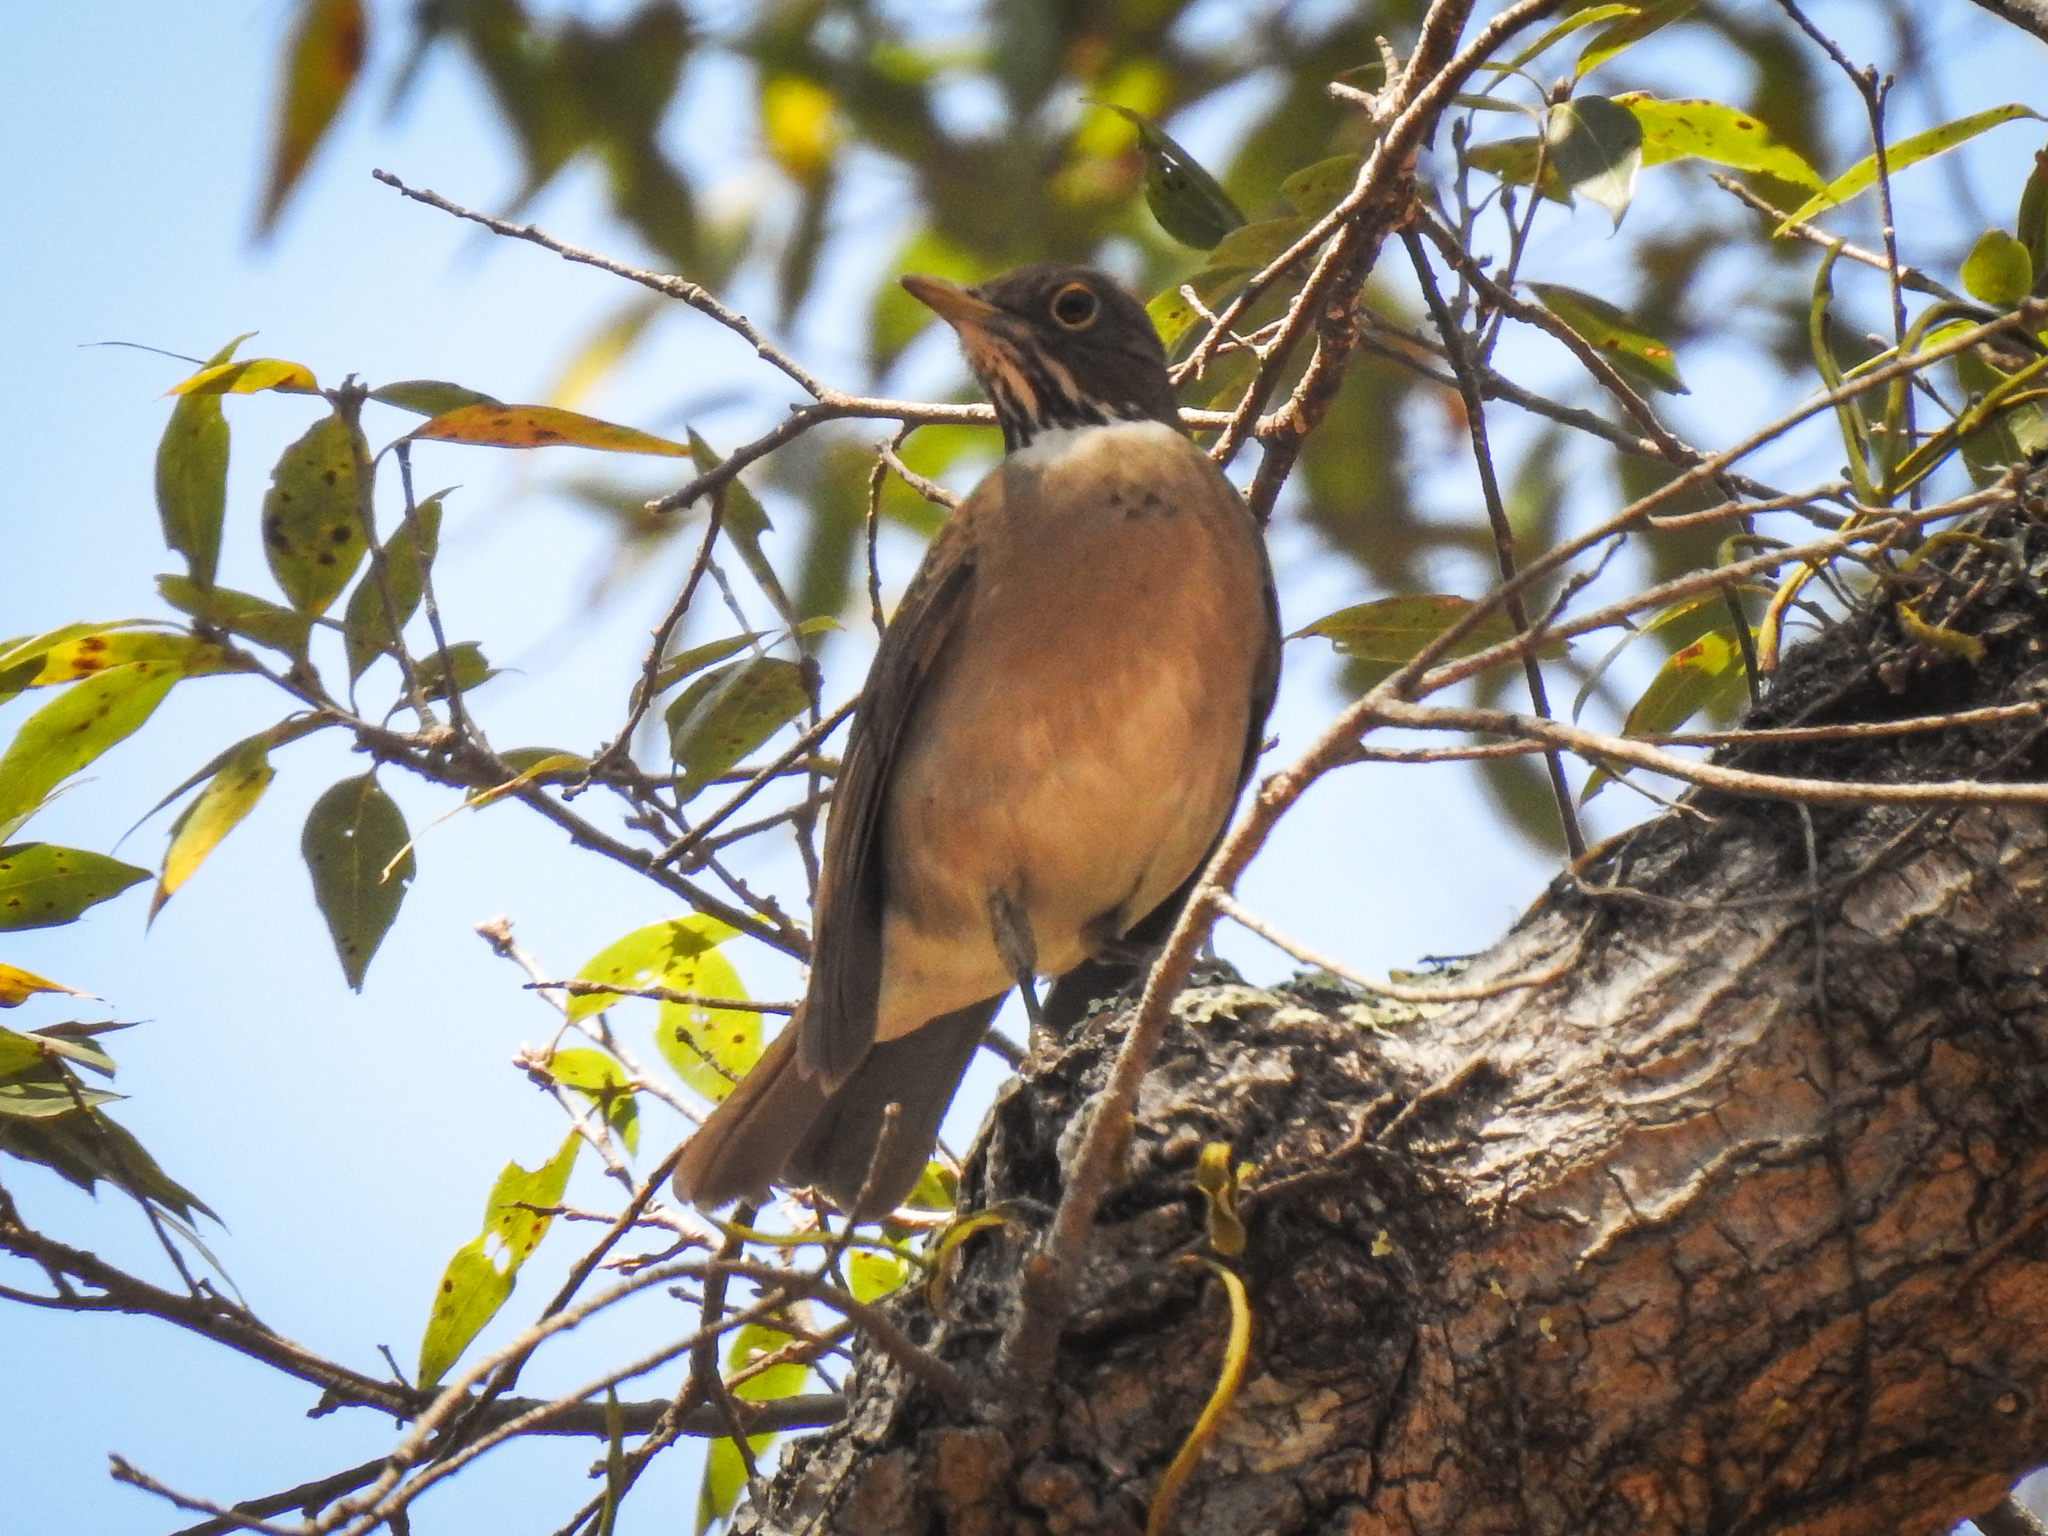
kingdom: Animalia
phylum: Chordata
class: Aves
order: Passeriformes
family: Turdidae
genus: Turdus
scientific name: Turdus assimilis
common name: White-throated thrush
